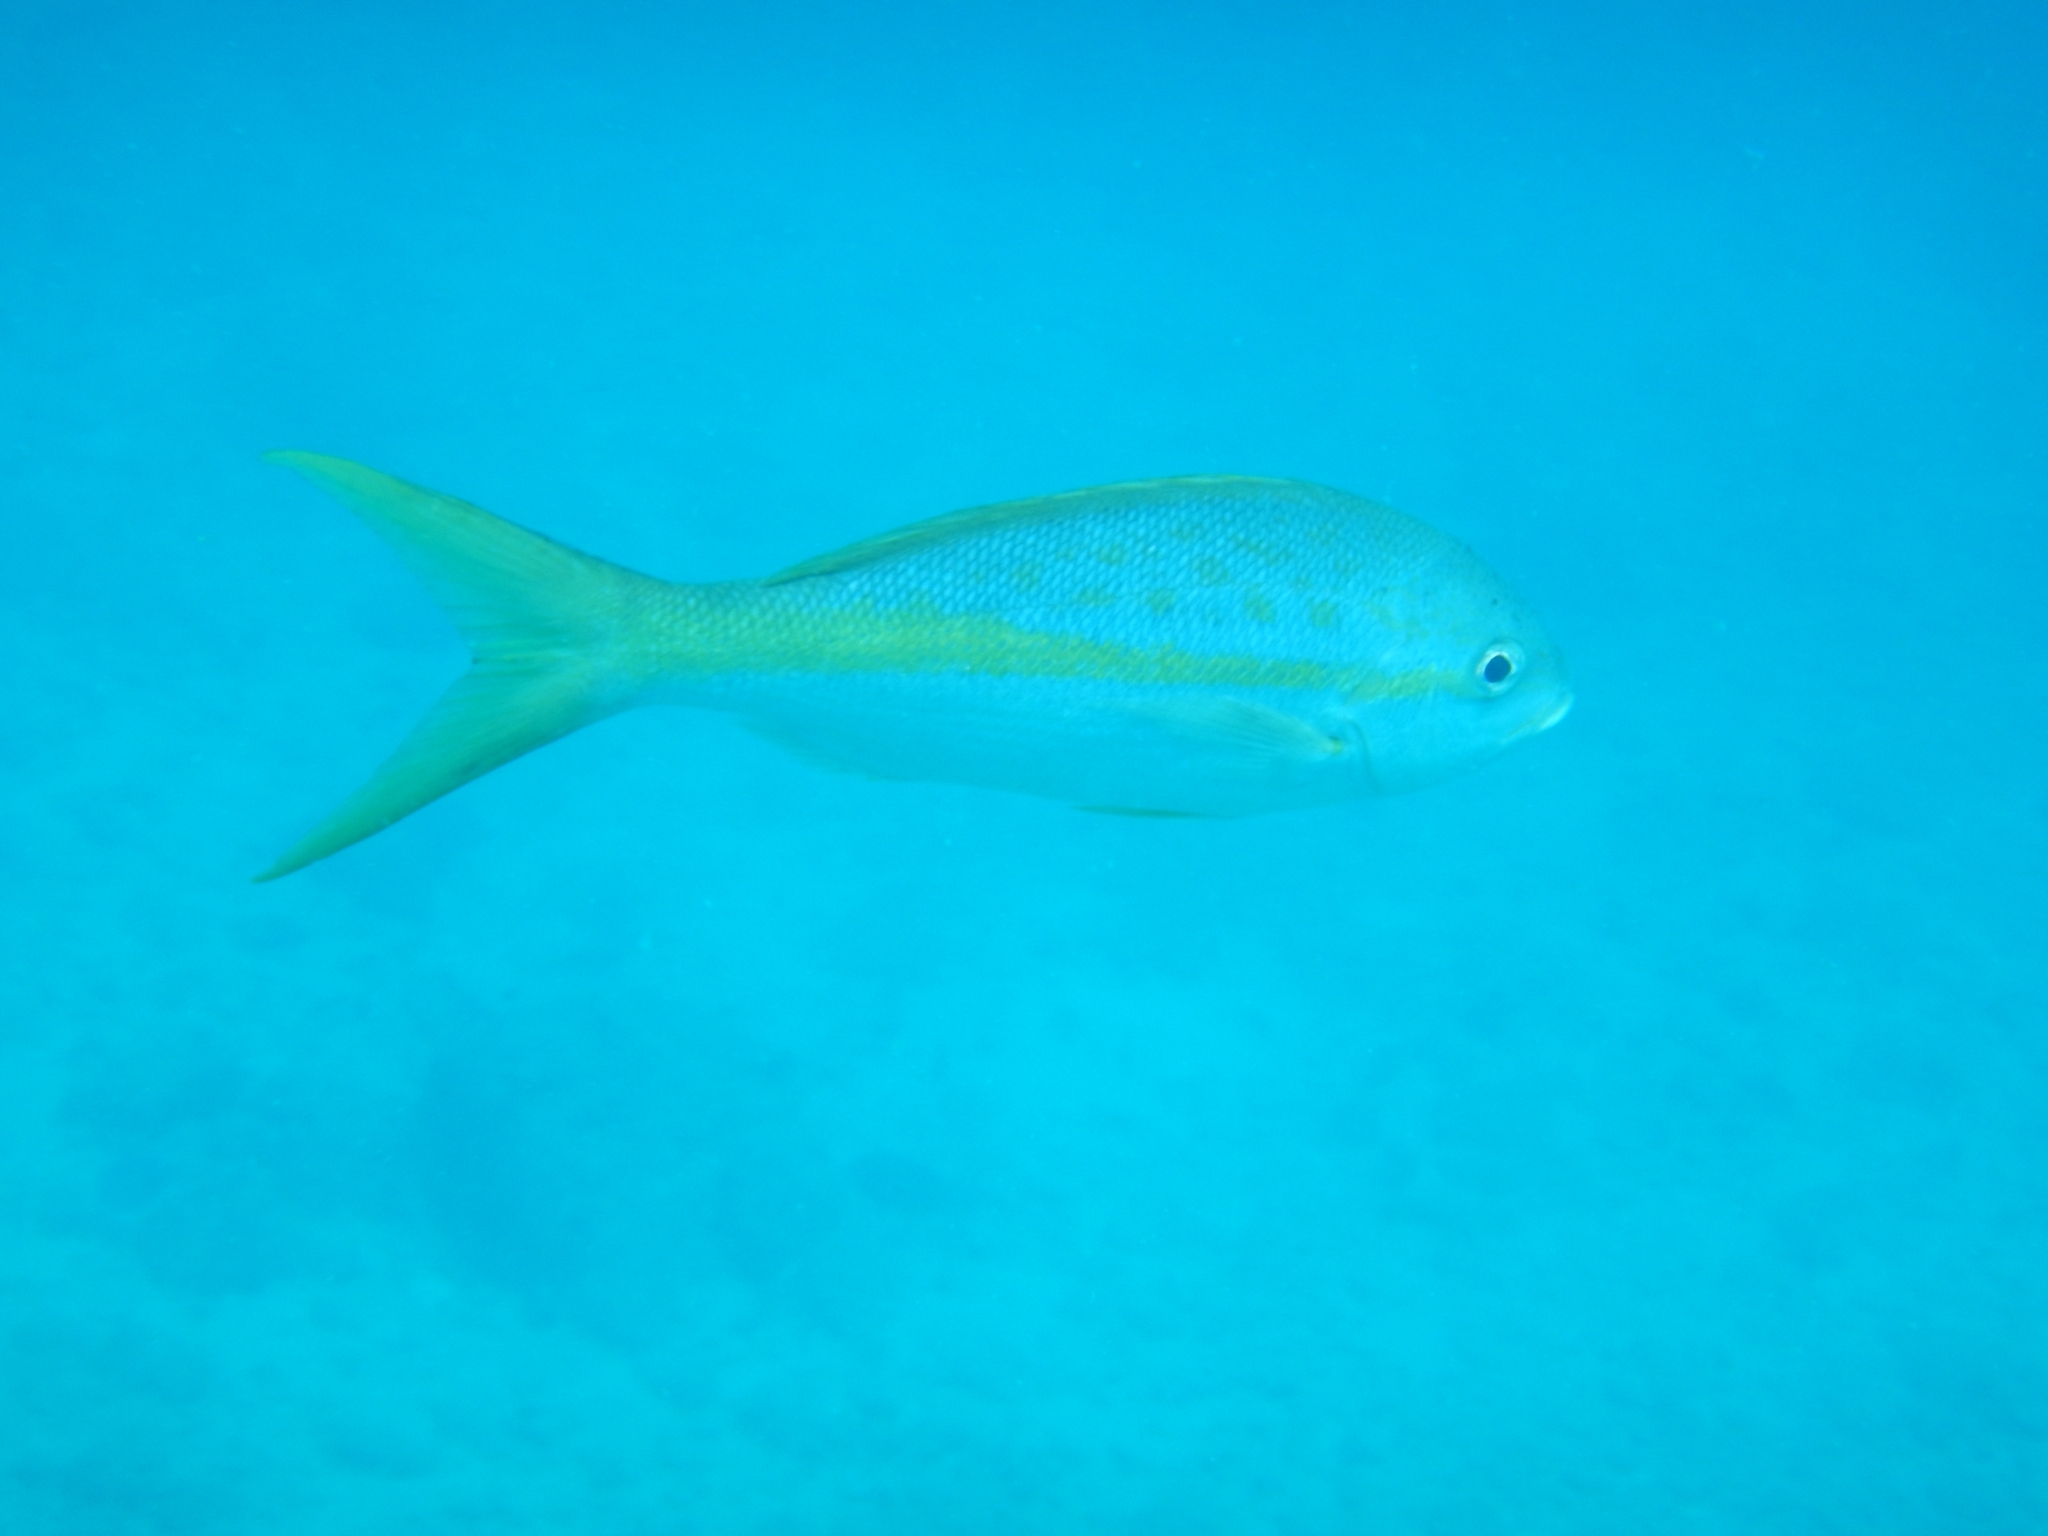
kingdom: Animalia
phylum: Chordata
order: Perciformes
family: Lutjanidae
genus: Ocyurus
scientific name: Ocyurus chrysurus
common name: Yellowtail snapper
